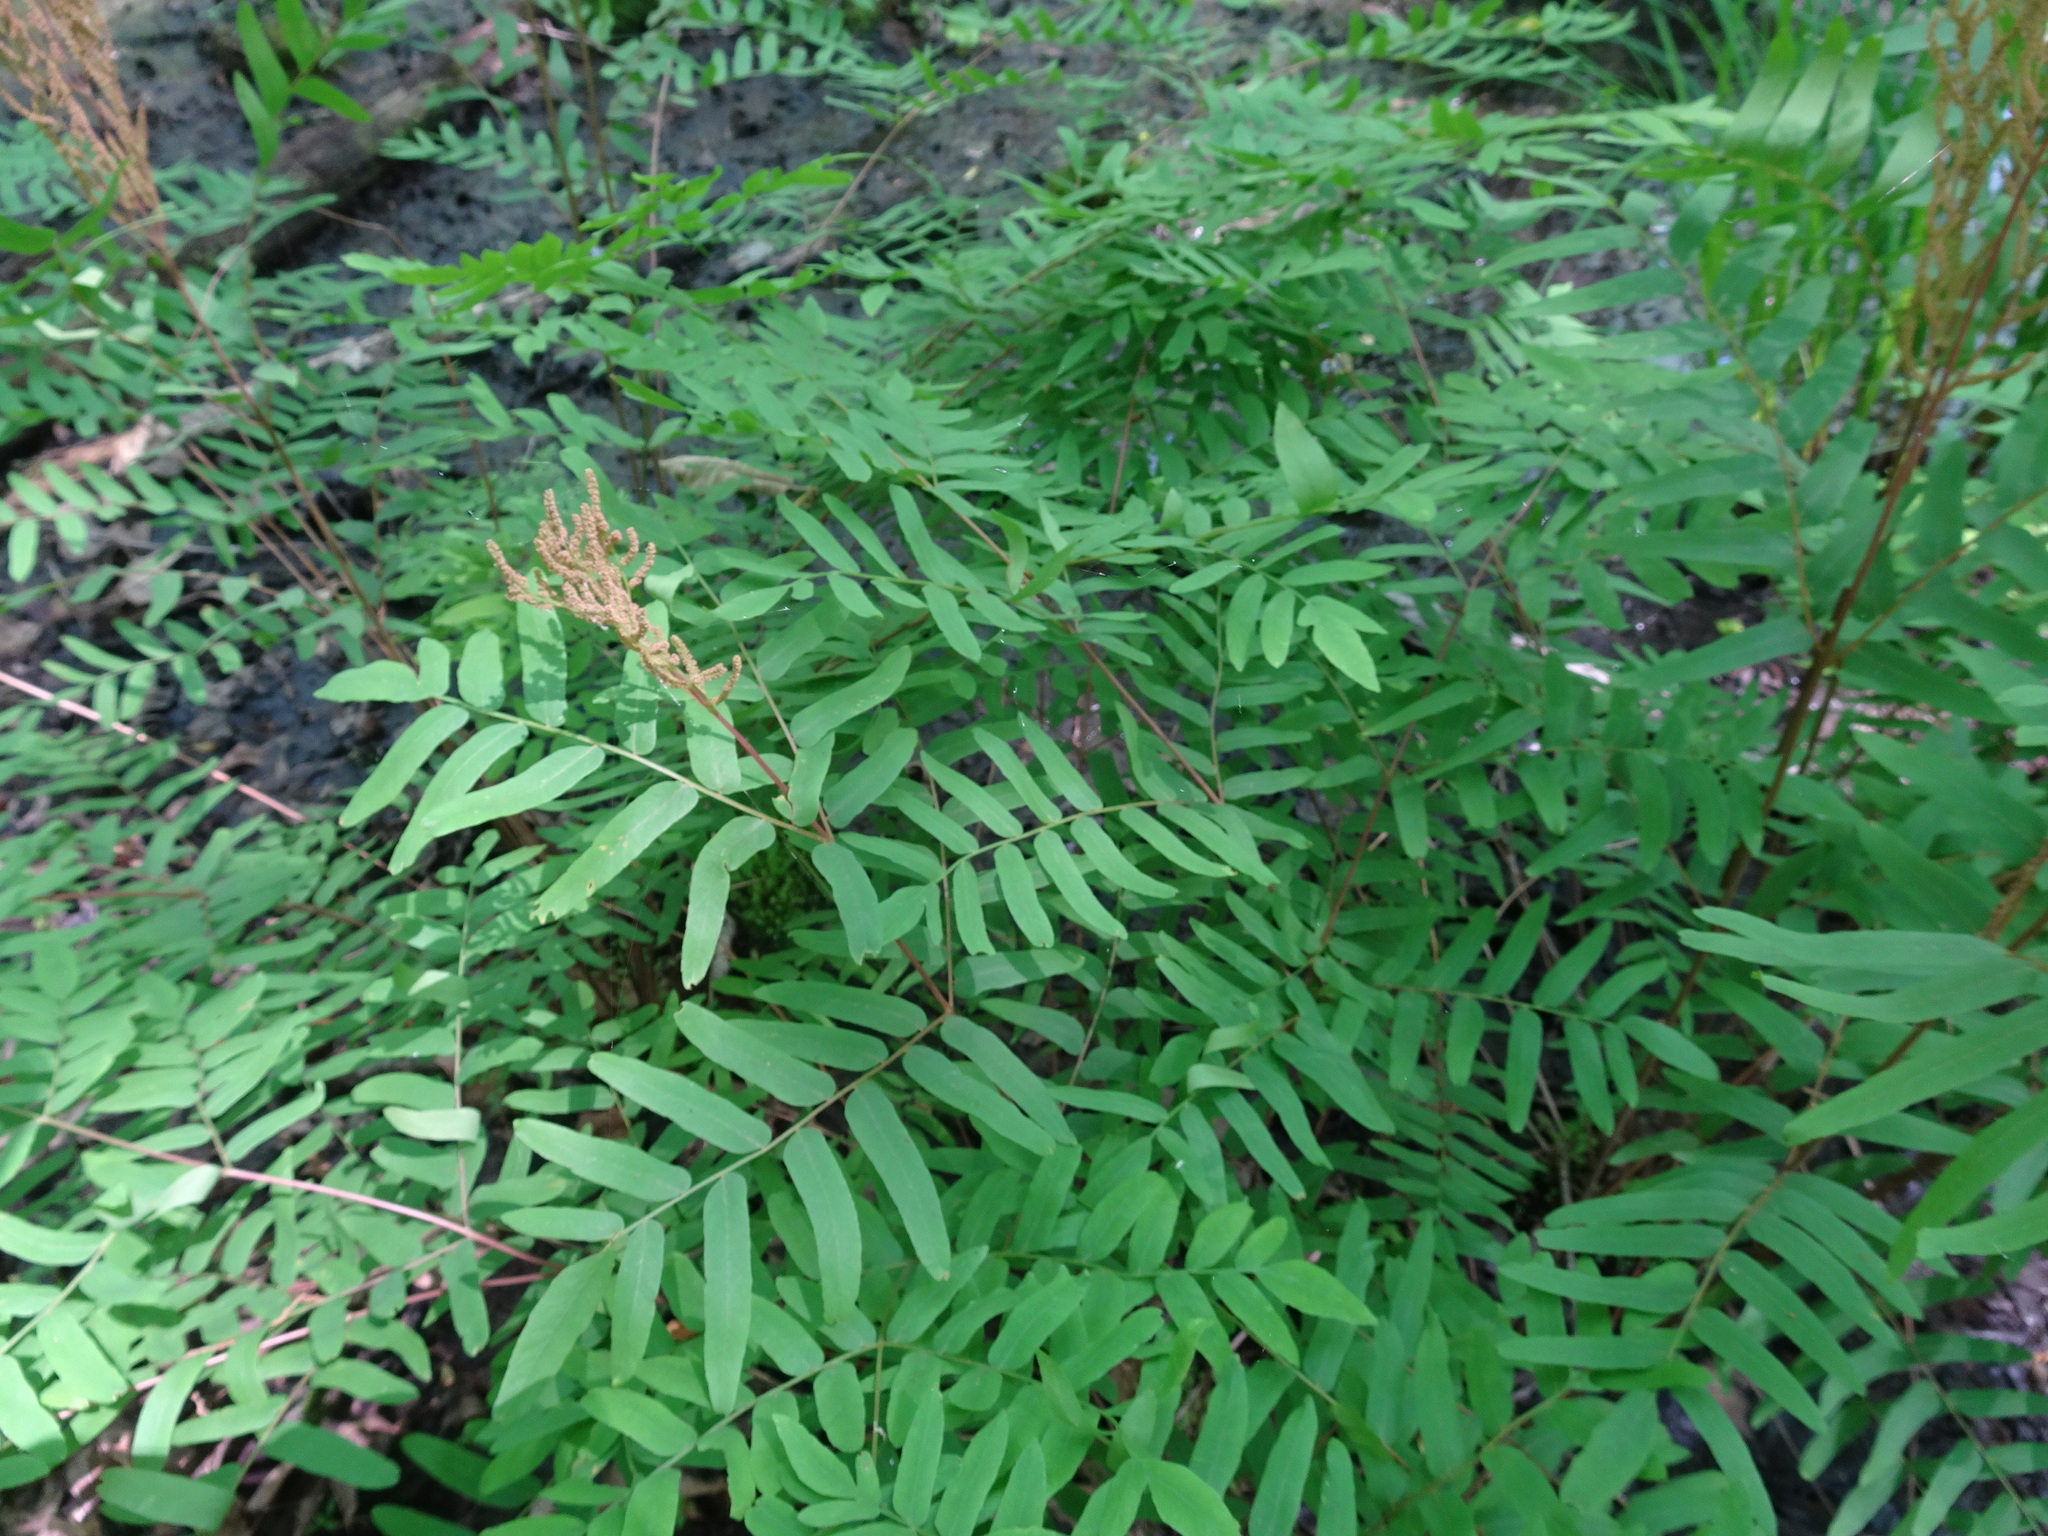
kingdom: Plantae
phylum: Tracheophyta
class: Polypodiopsida
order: Osmundales
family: Osmundaceae
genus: Osmunda
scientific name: Osmunda spectabilis
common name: American royal fern
